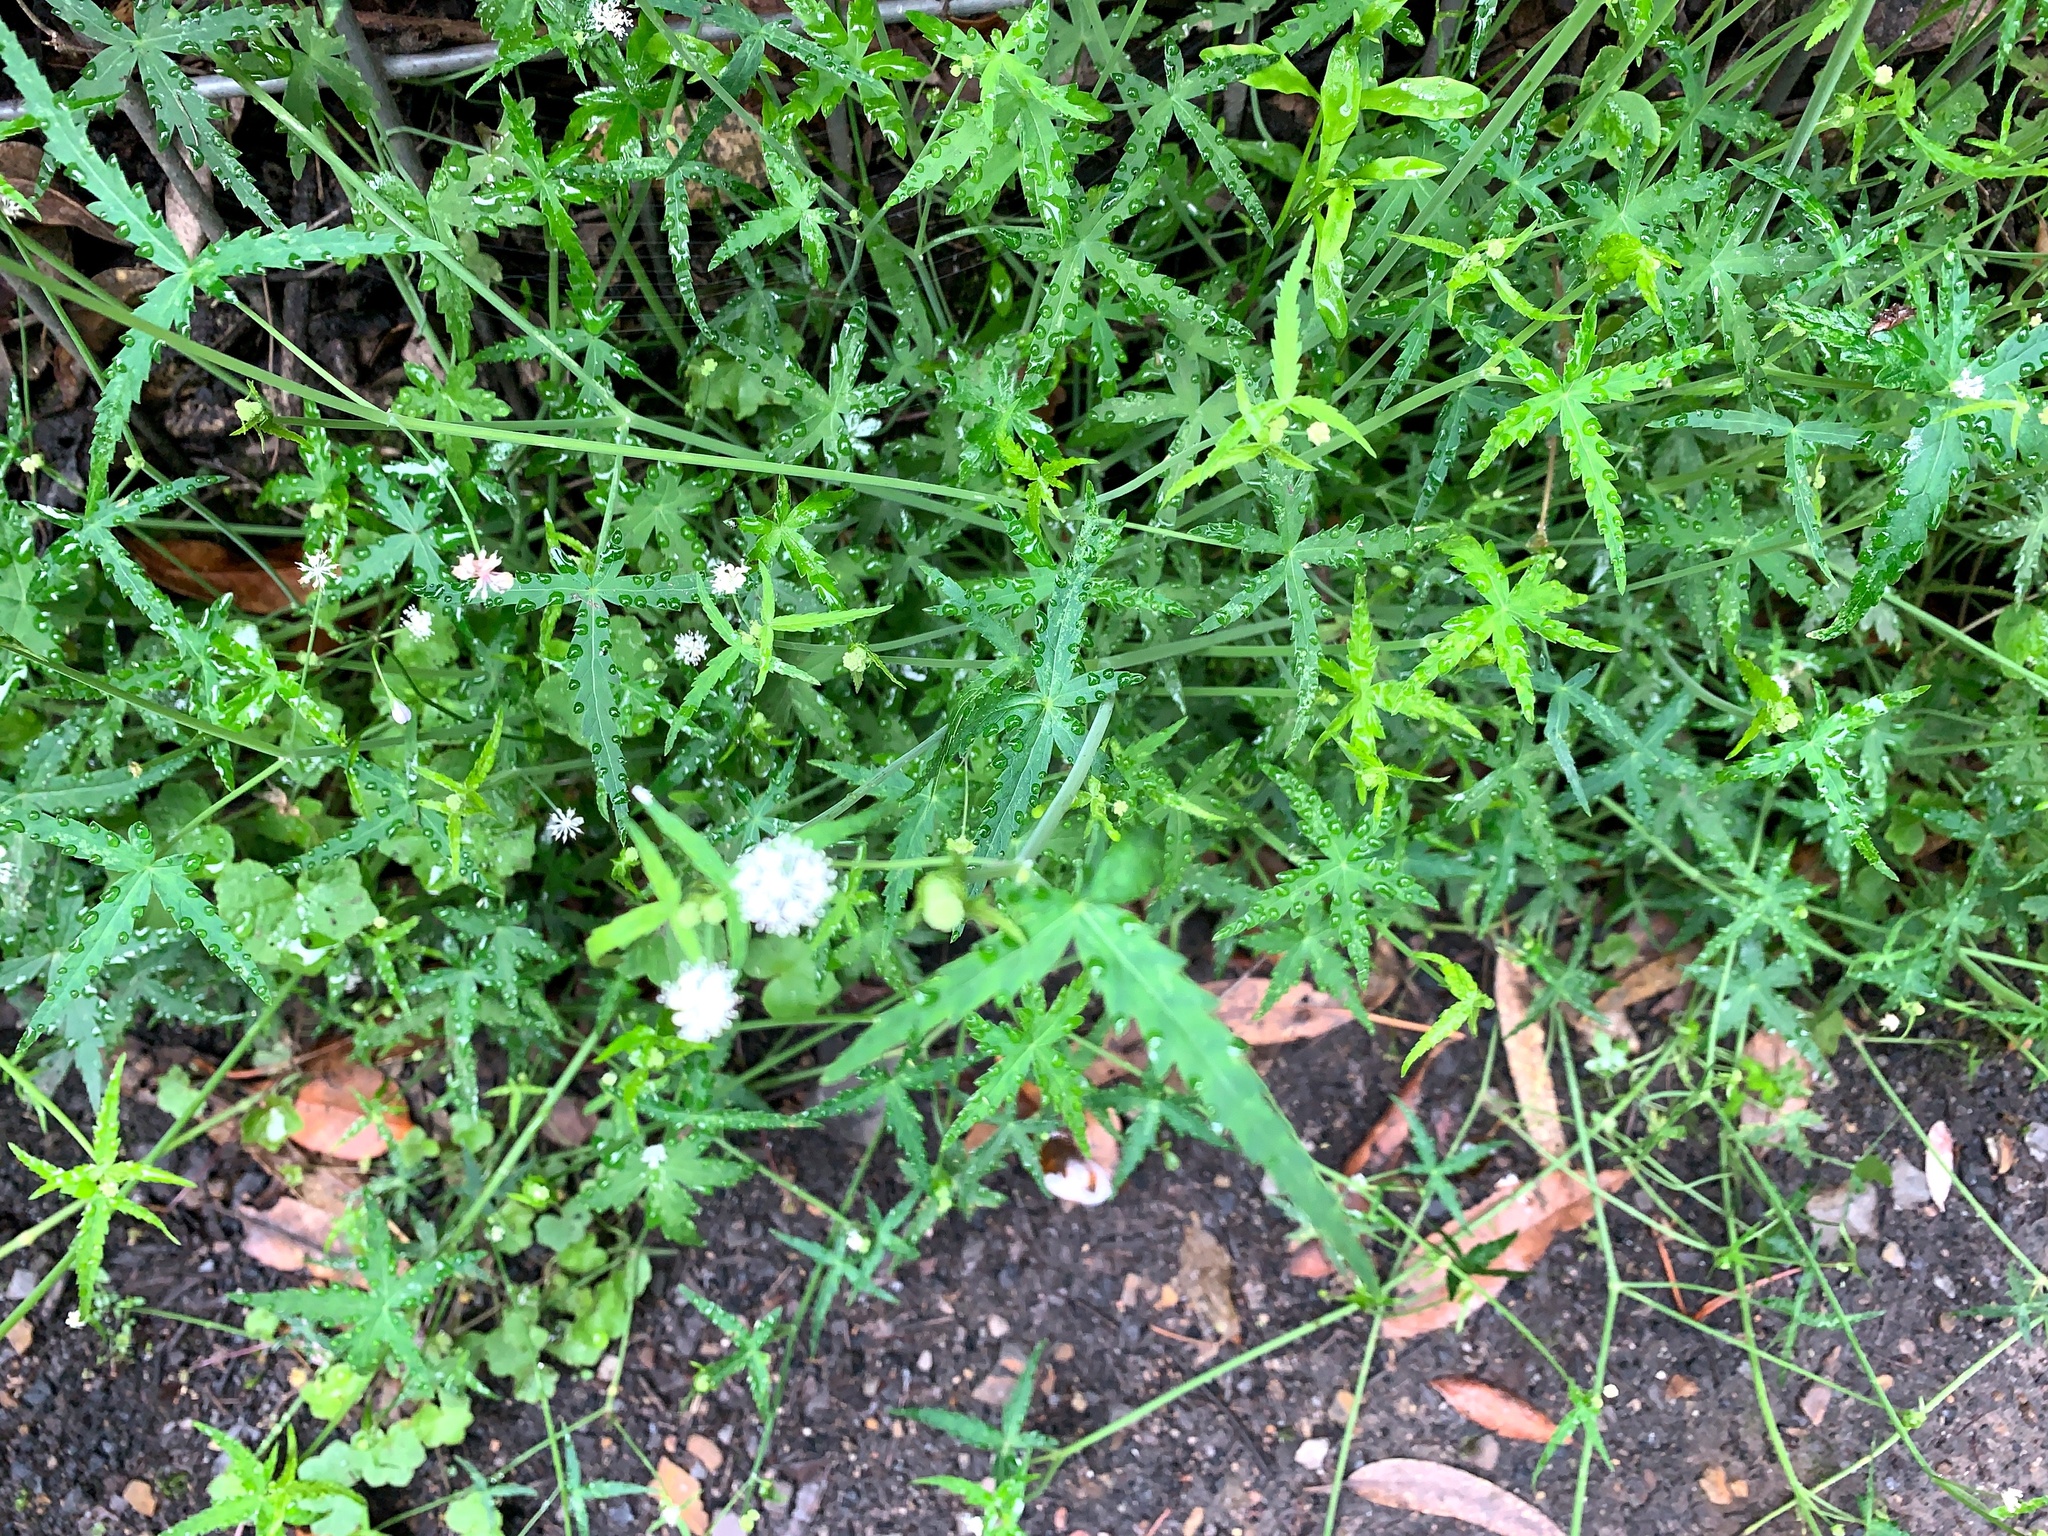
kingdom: Plantae
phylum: Tracheophyta
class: Magnoliopsida
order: Apiales
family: Araliaceae
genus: Hydrocotyle
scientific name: Hydrocotyle geraniifolia
